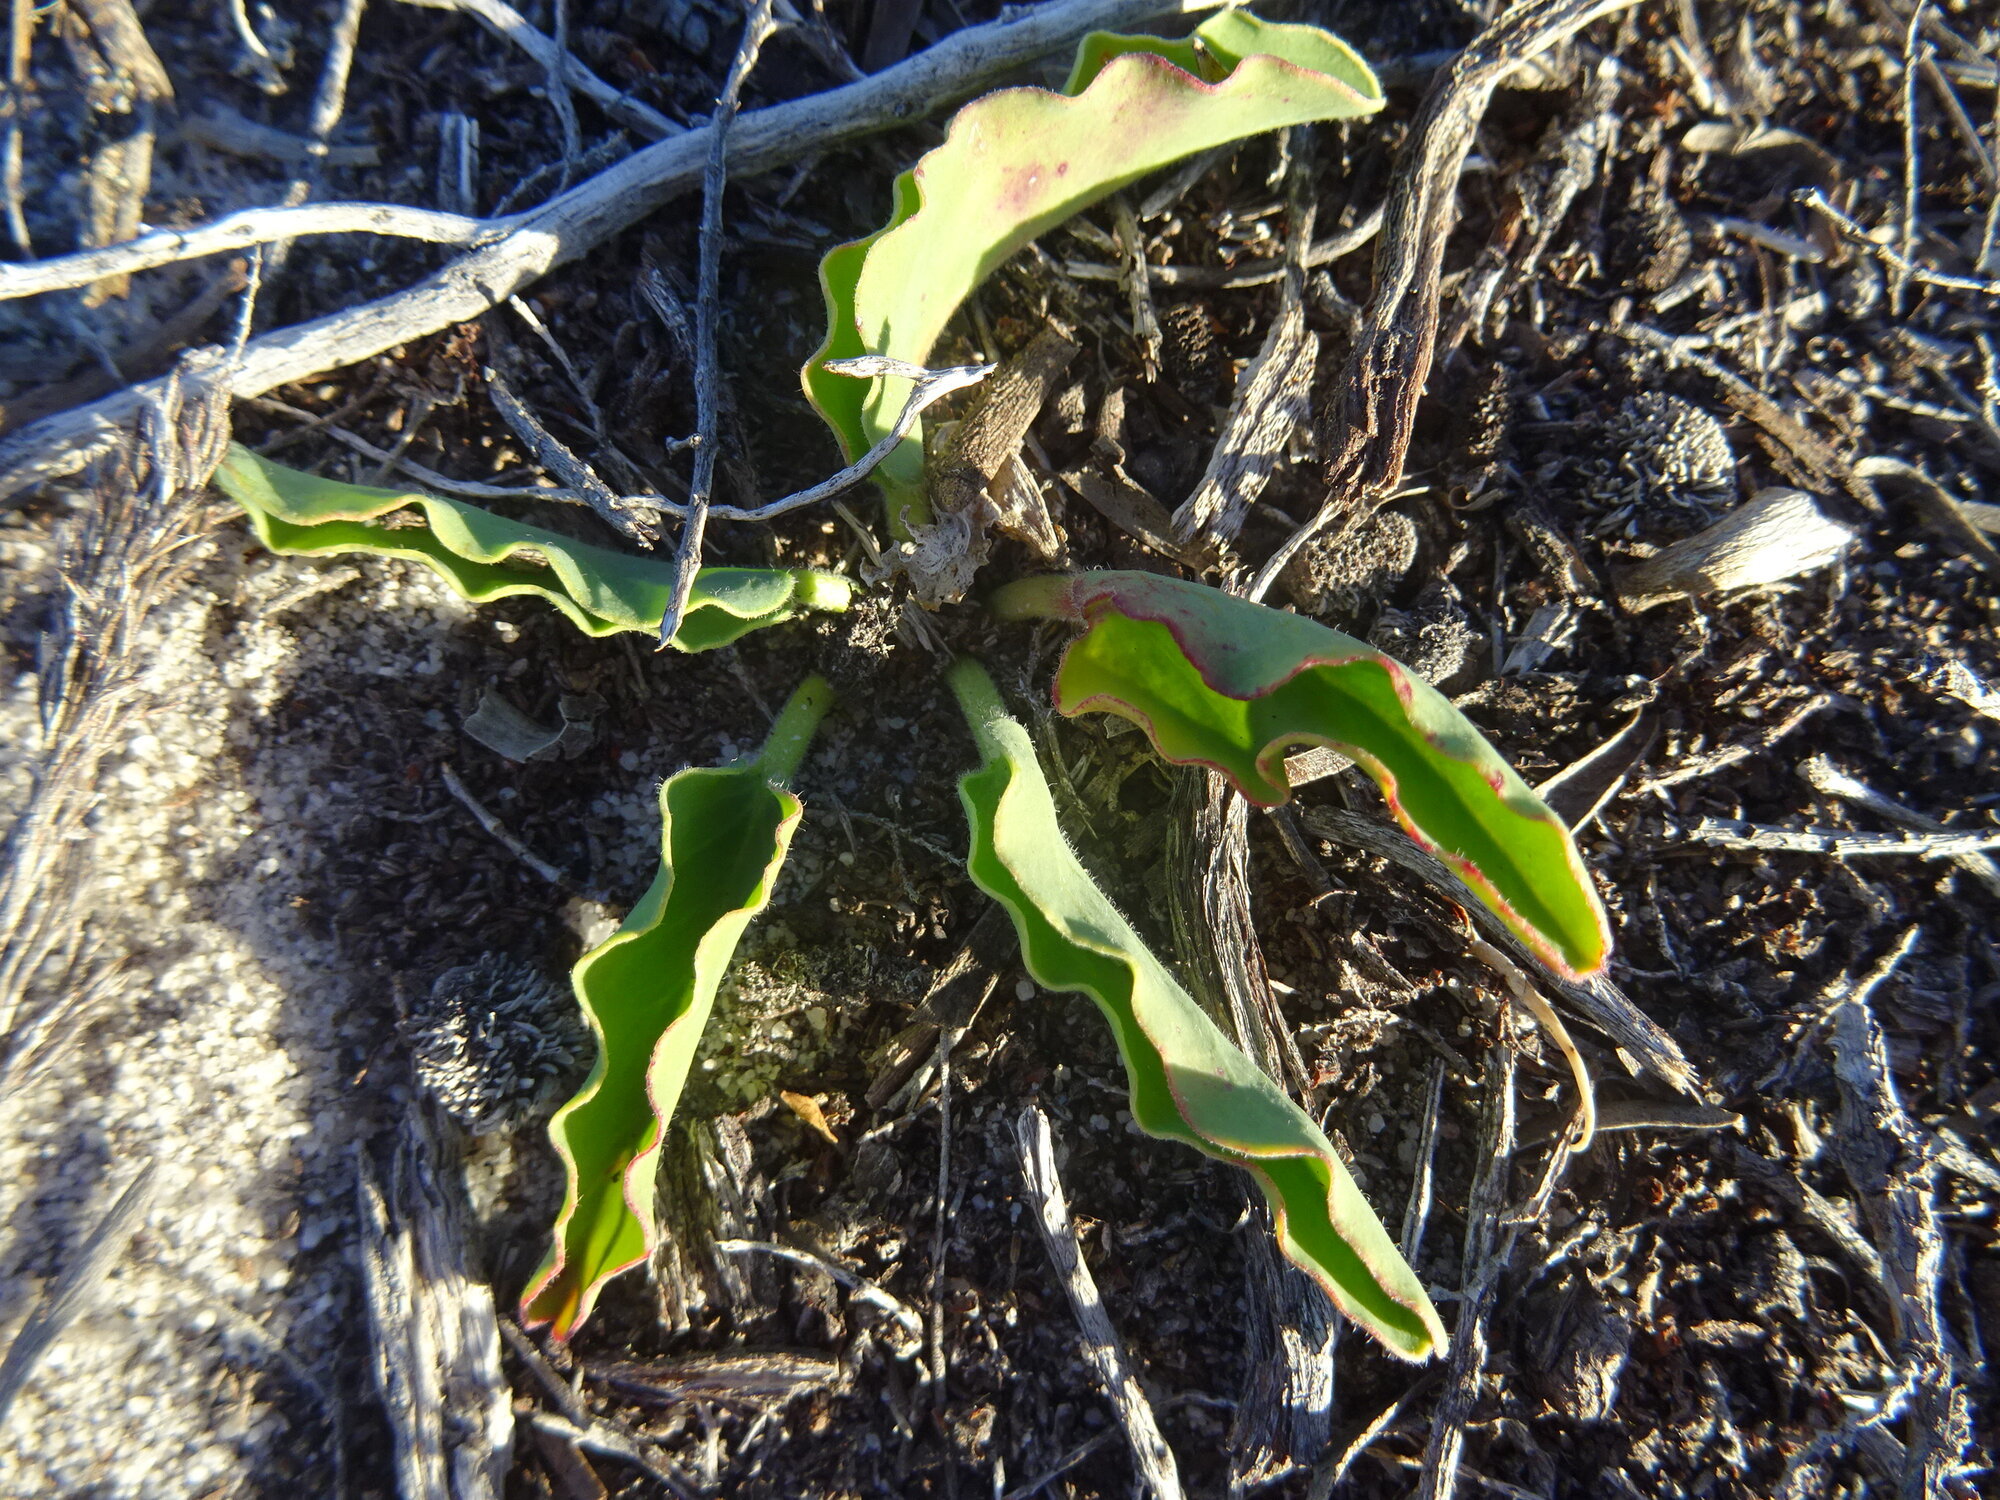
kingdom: Plantae
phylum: Tracheophyta
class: Magnoliopsida
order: Malpighiales
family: Euphorbiaceae
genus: Euphorbia
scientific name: Euphorbia tuberosa
